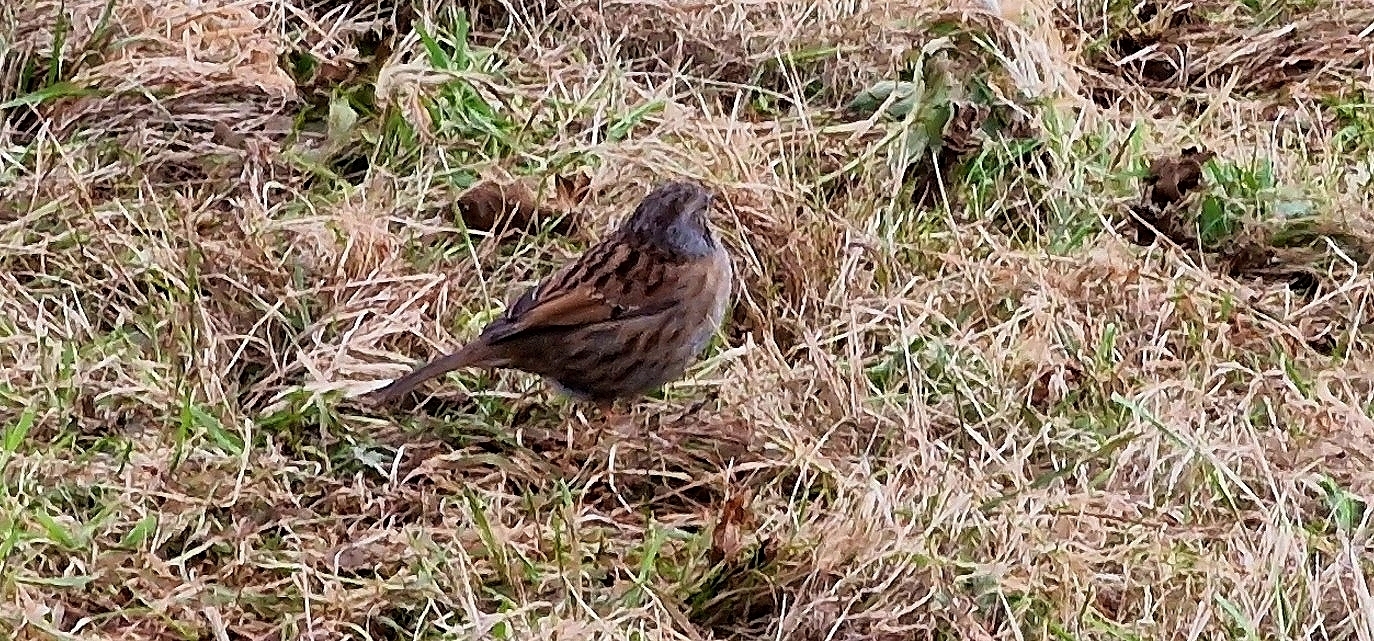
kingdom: Animalia
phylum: Chordata
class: Aves
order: Passeriformes
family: Prunellidae
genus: Prunella
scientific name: Prunella modularis
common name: Dunnock
